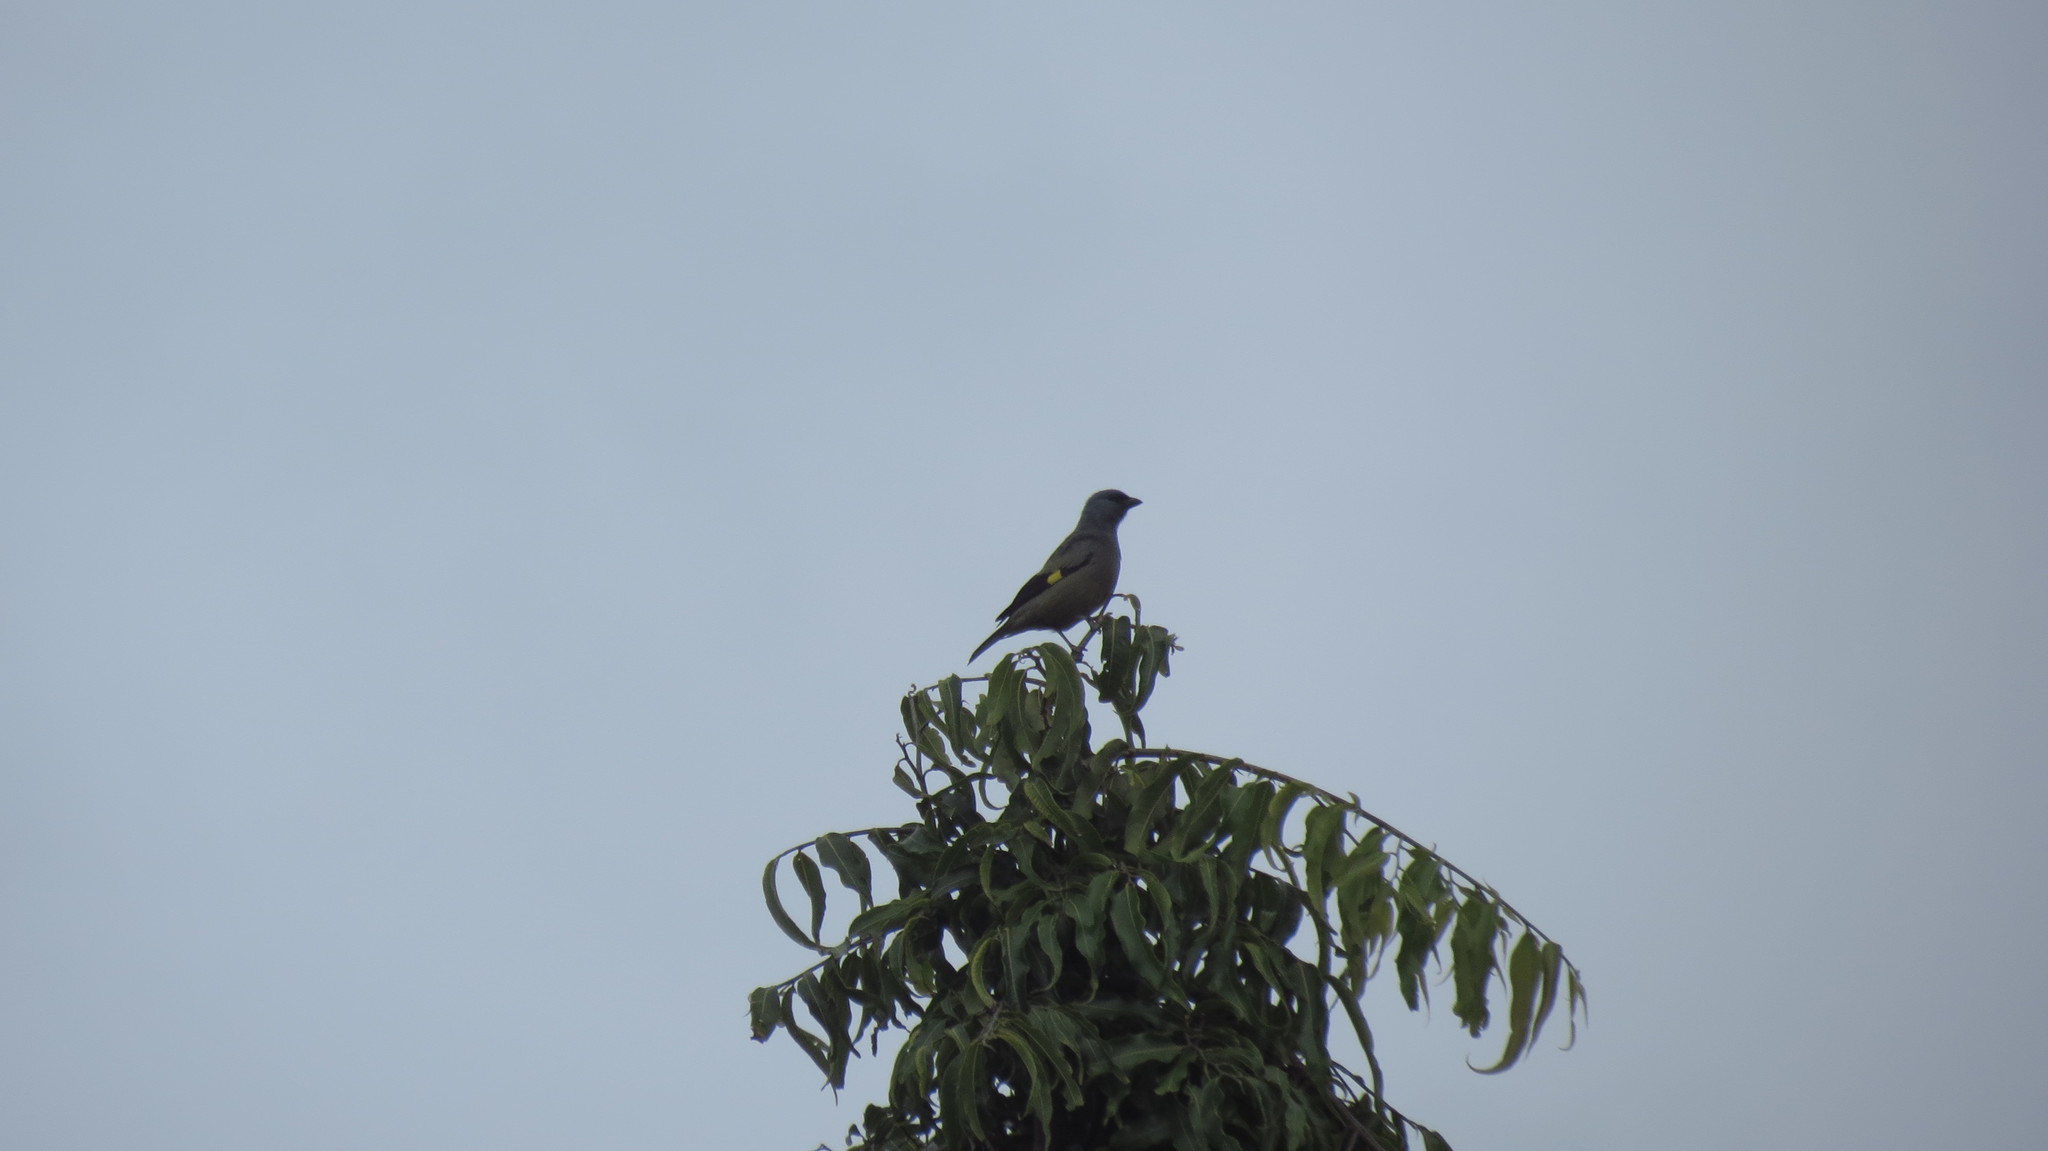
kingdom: Animalia
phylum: Chordata
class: Aves
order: Passeriformes
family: Thraupidae
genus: Thraupis
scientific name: Thraupis abbas
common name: Yellow-winged tanager
